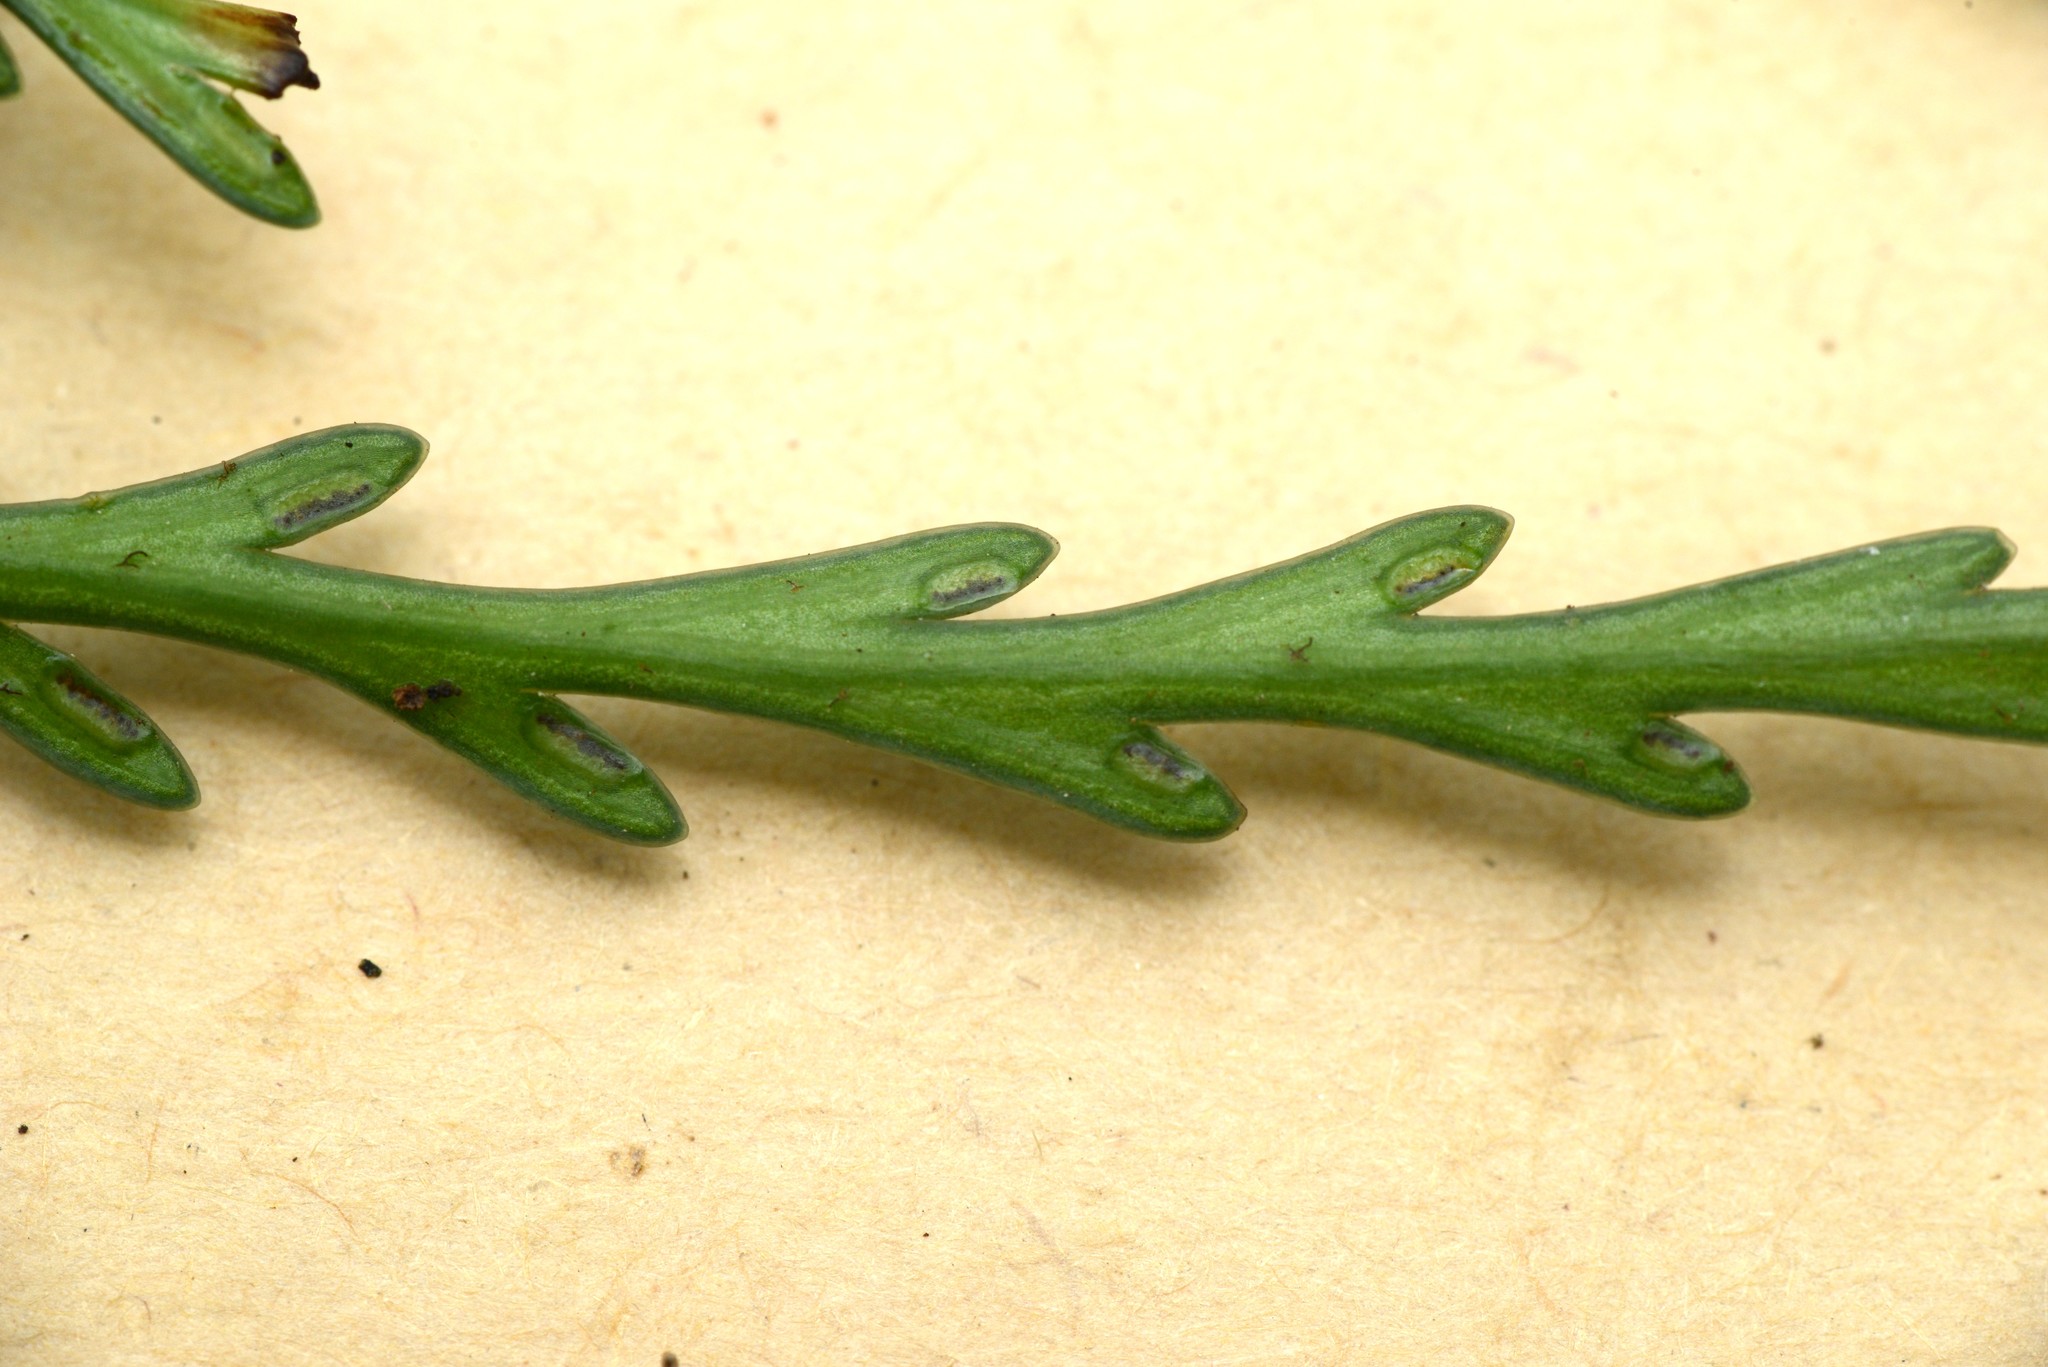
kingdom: Plantae
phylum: Tracheophyta
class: Polypodiopsida
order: Polypodiales
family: Aspleniaceae
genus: Asplenium
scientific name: Asplenium flaccidum
